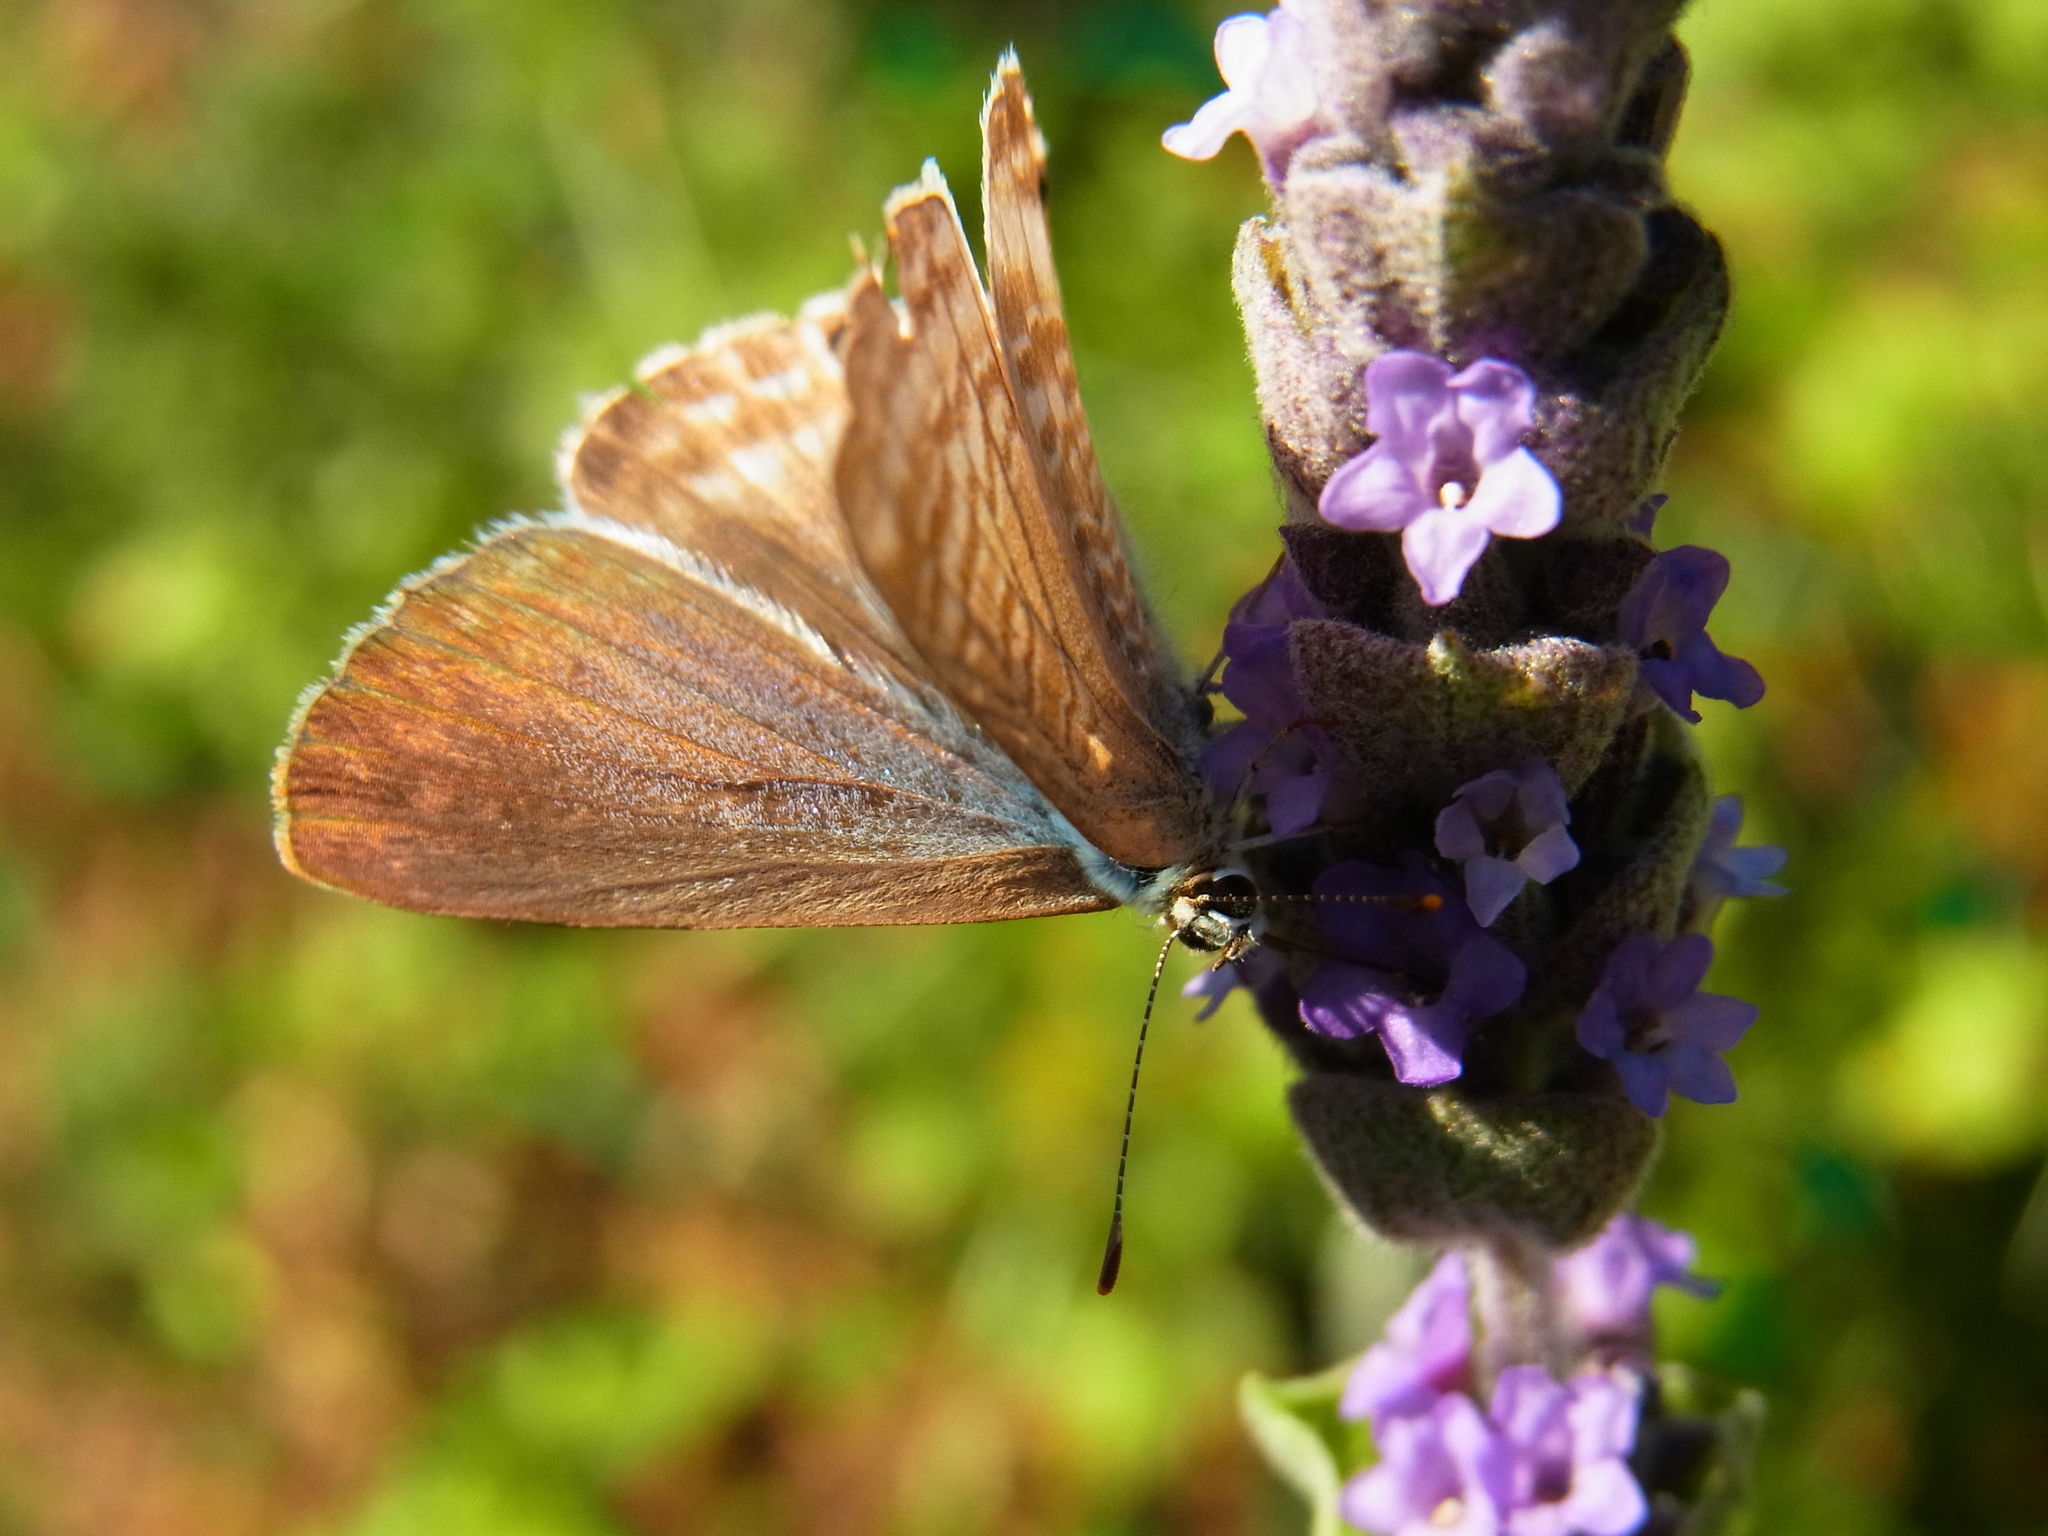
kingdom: Animalia
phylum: Arthropoda
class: Insecta
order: Lepidoptera
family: Lycaenidae
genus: Lampides
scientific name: Lampides boeticus
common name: Long-tailed blue
